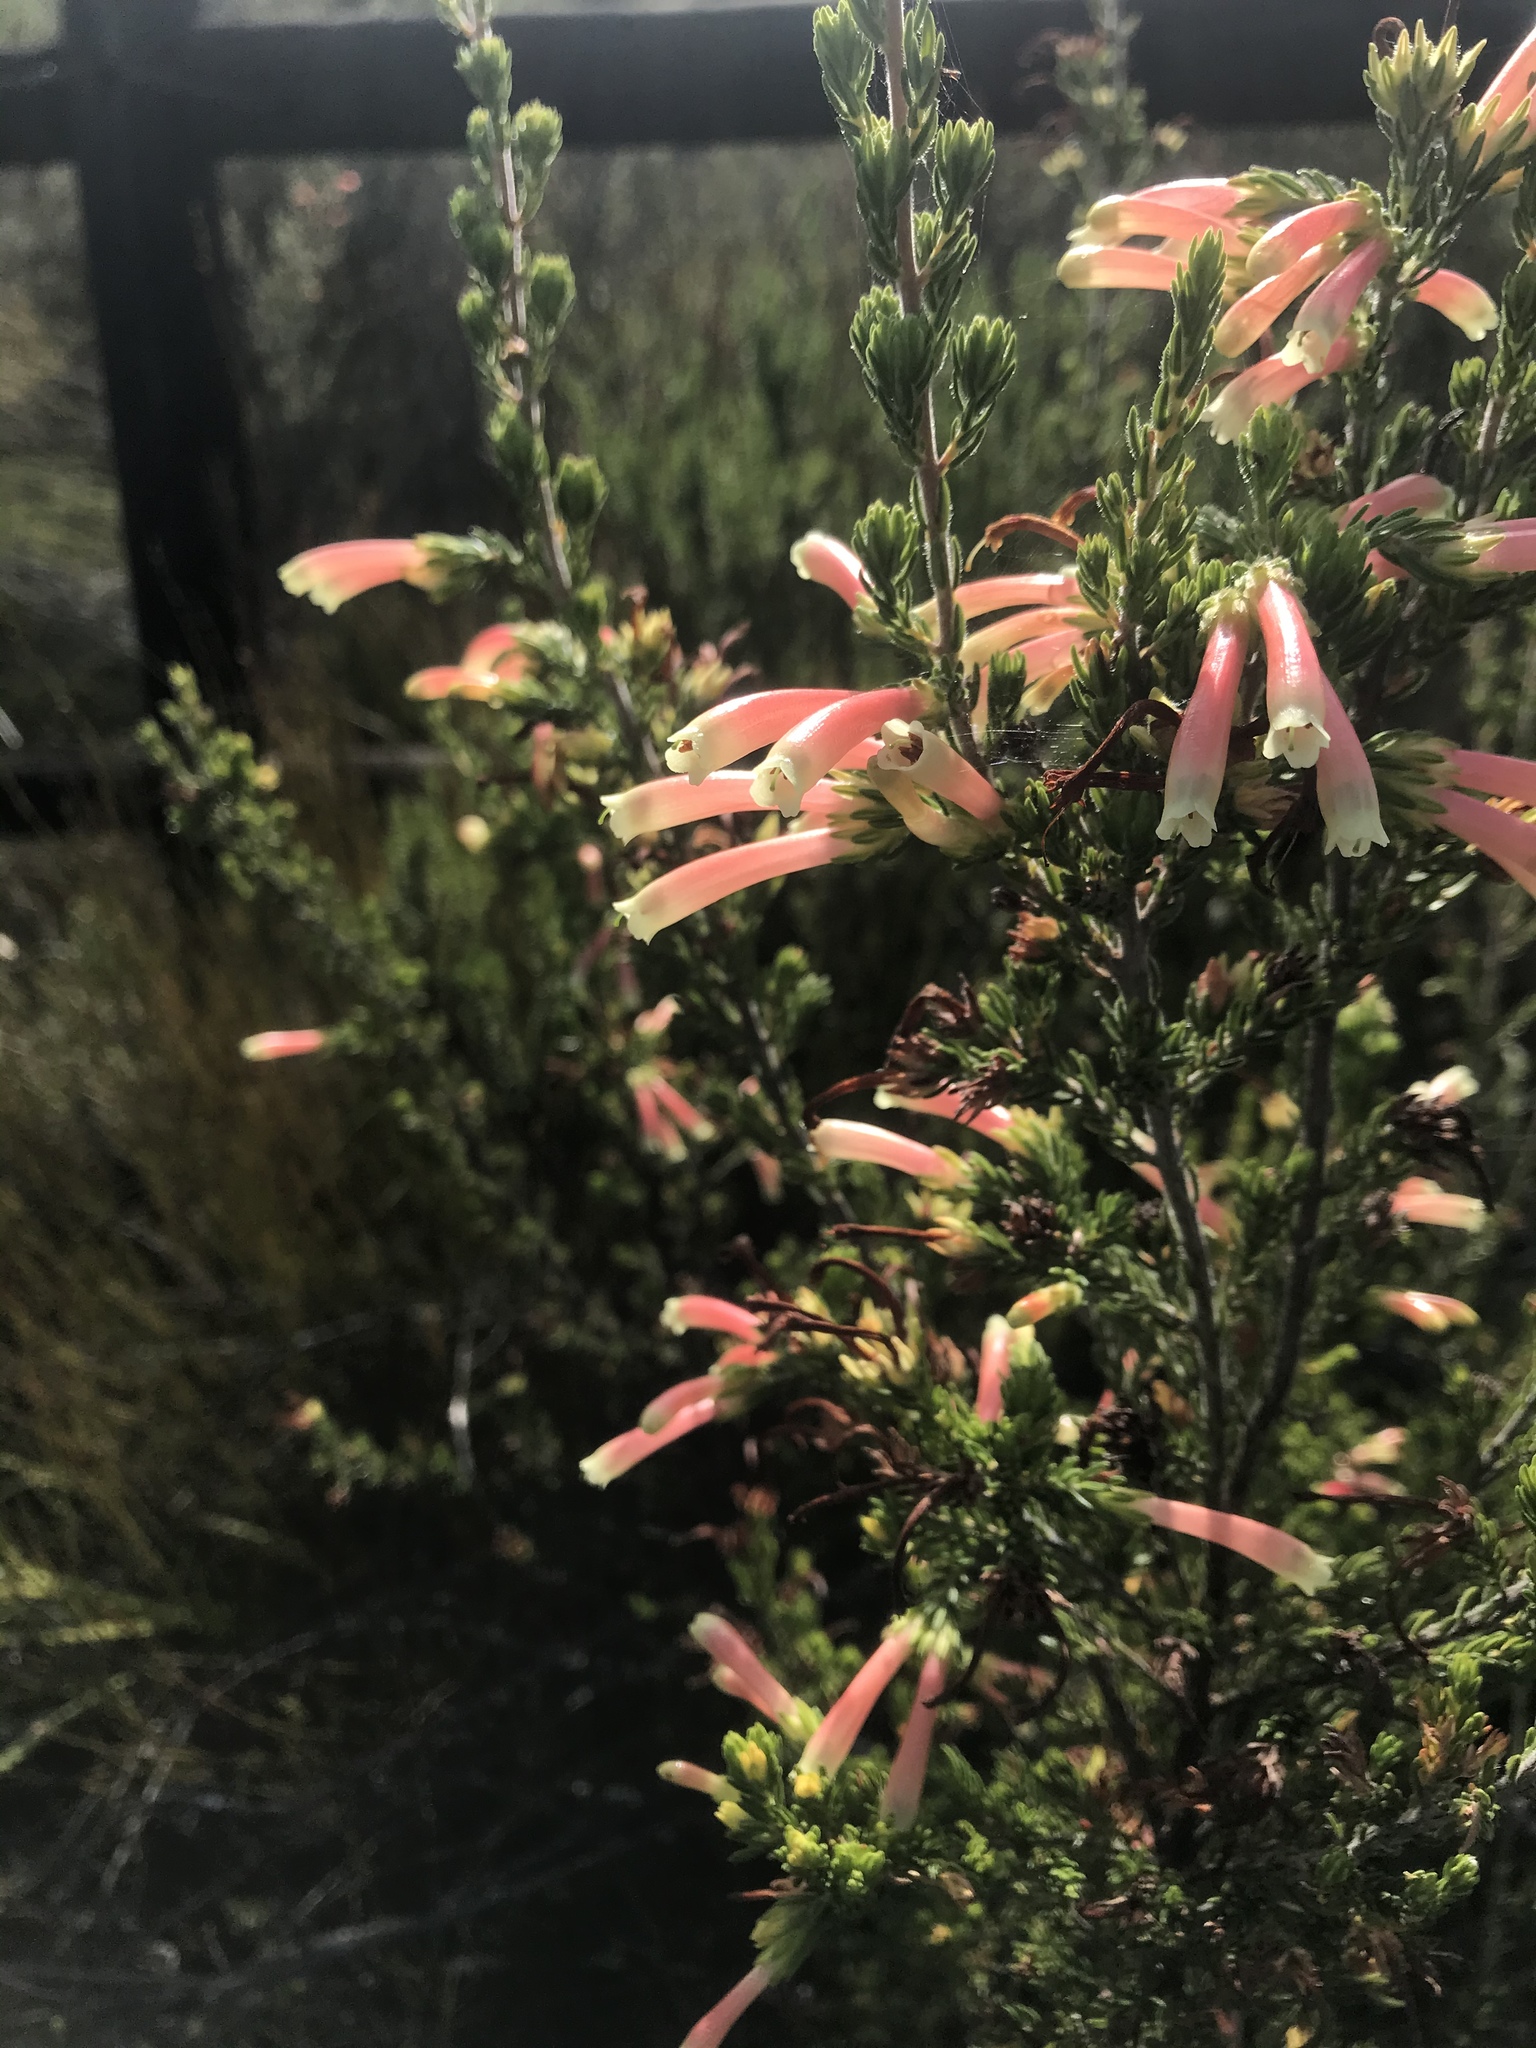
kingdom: Plantae
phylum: Tracheophyta
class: Magnoliopsida
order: Ericales
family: Ericaceae
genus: Erica
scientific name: Erica discolor
